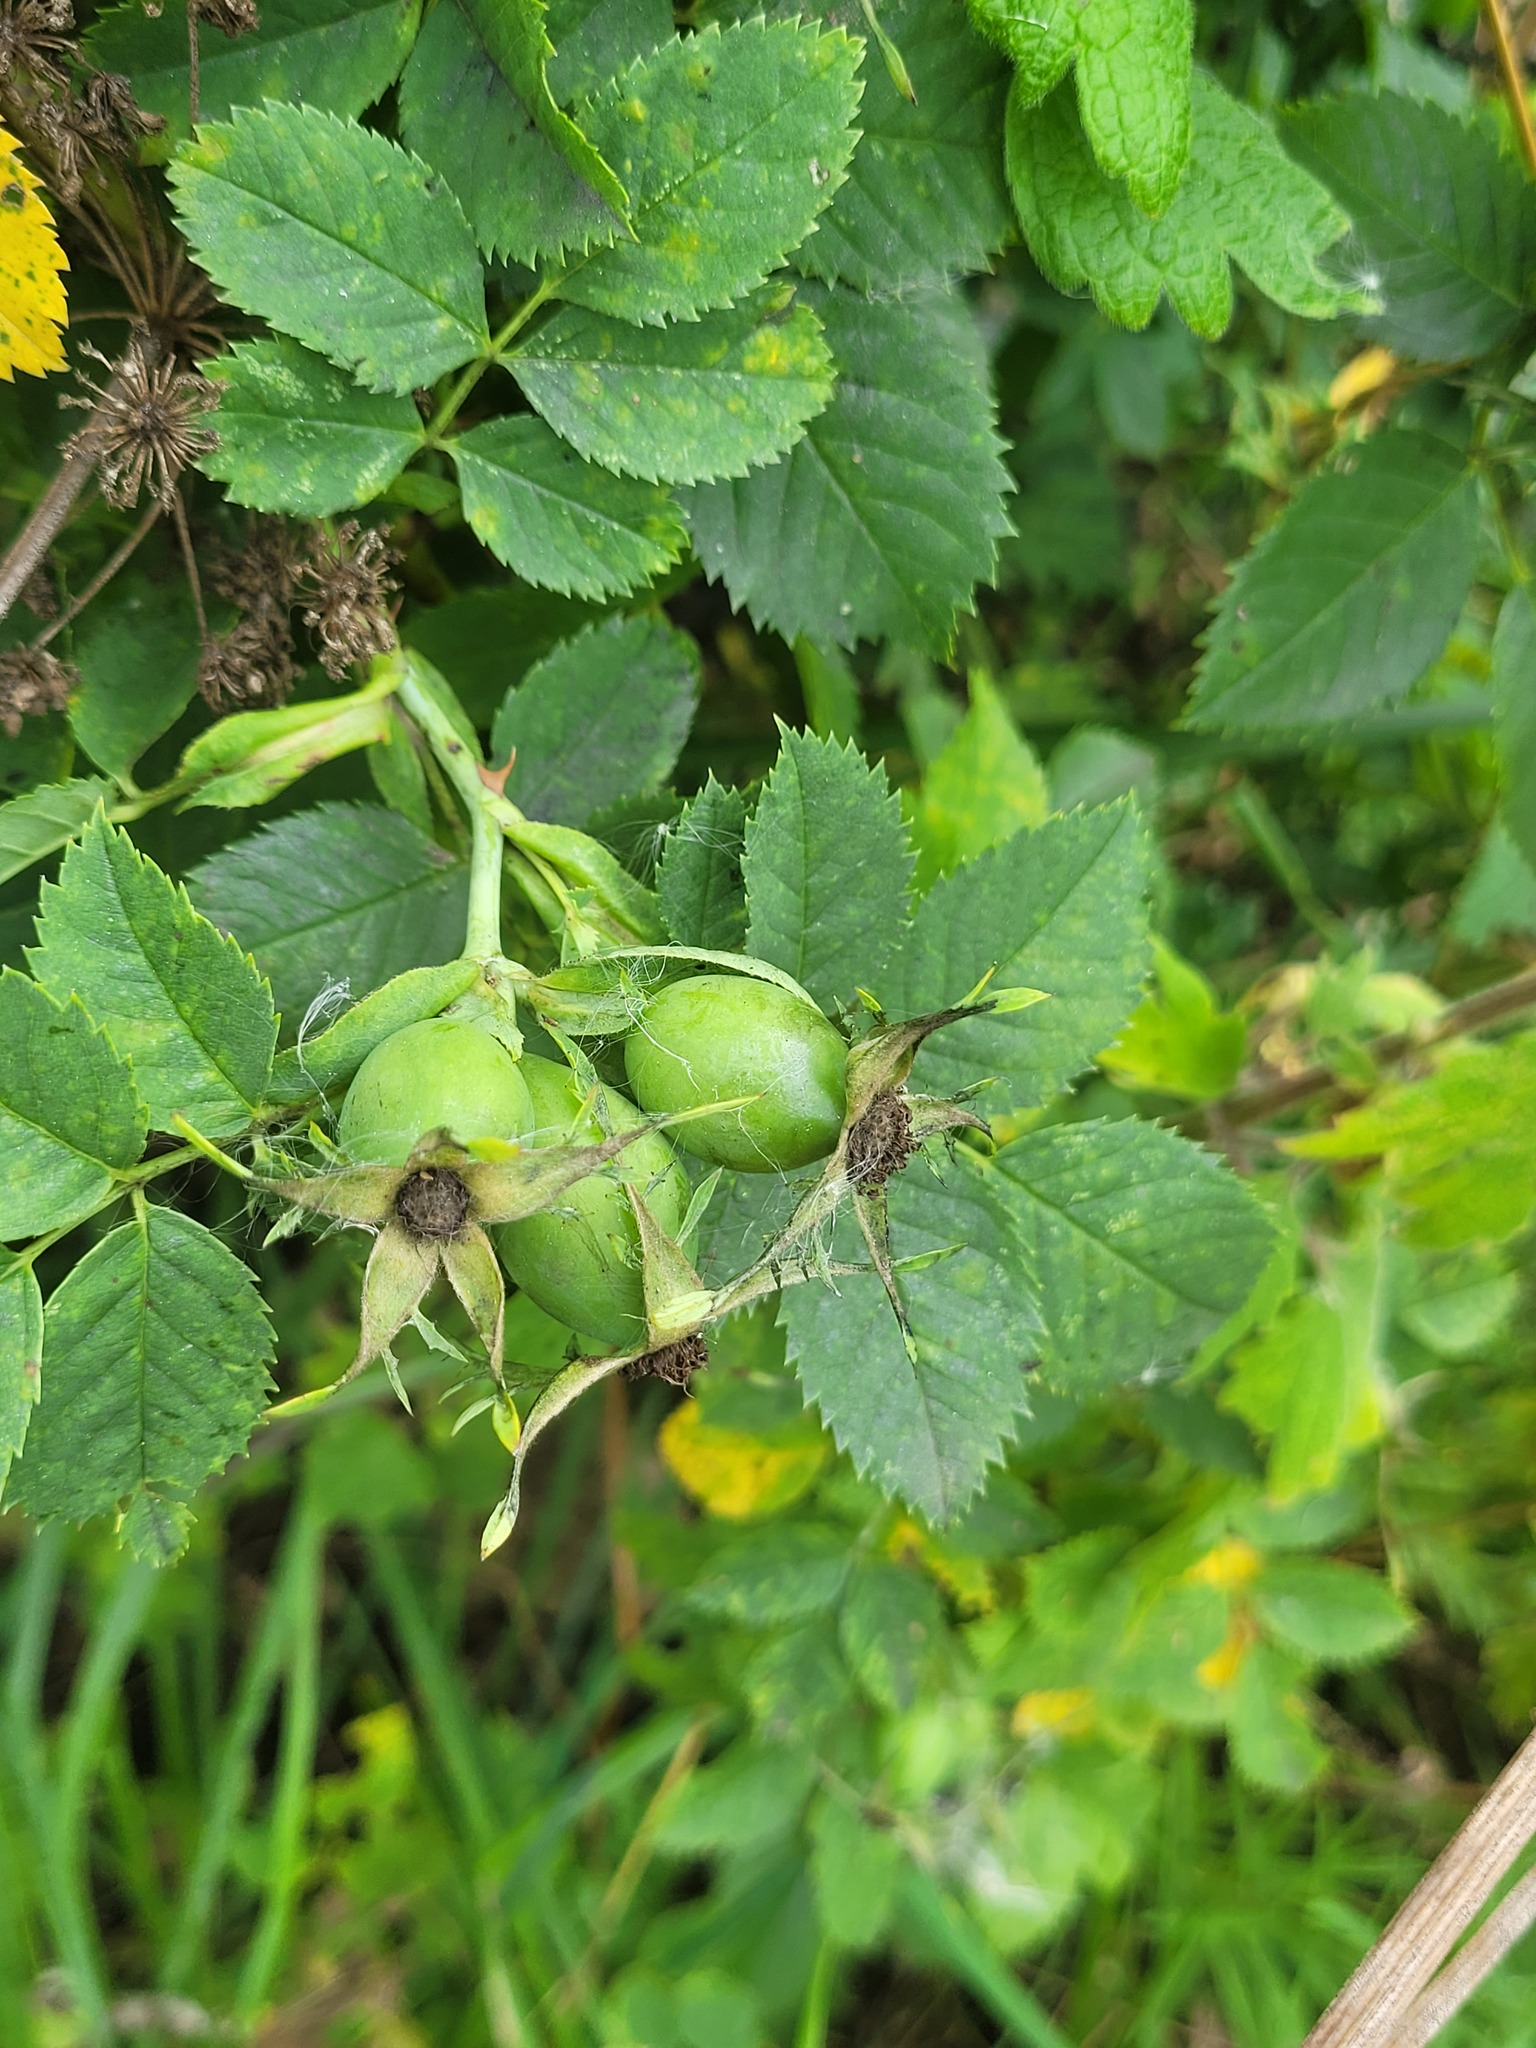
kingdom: Plantae
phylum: Tracheophyta
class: Magnoliopsida
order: Rosales
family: Rosaceae
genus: Rosa
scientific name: Rosa dumalis
